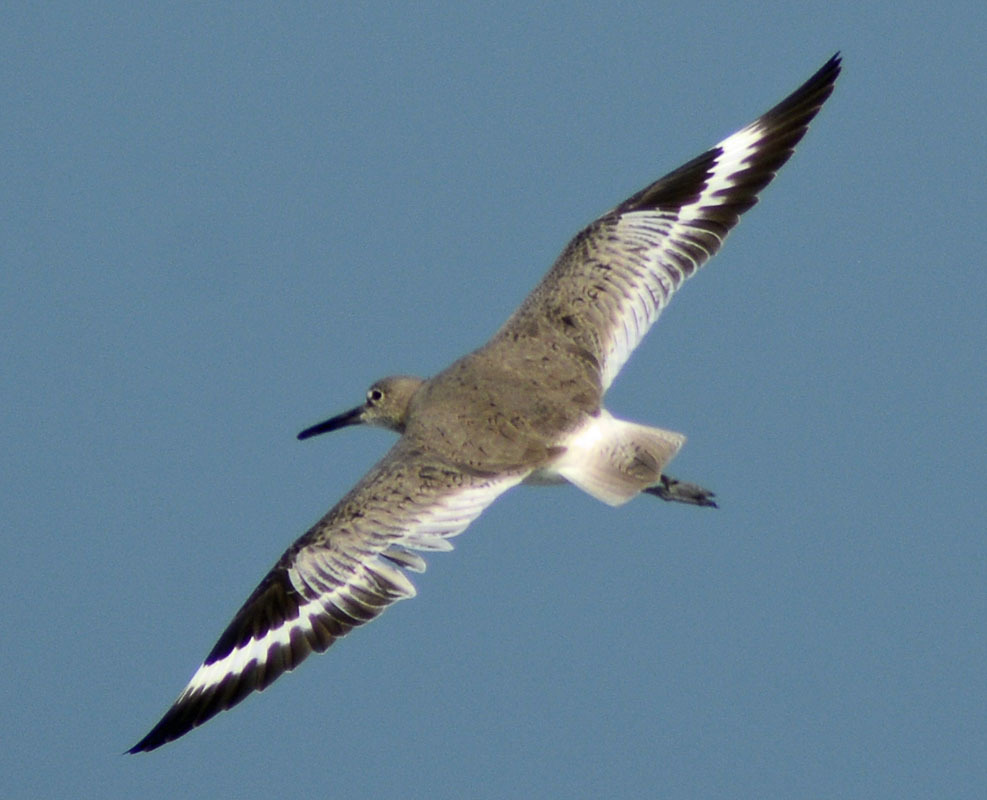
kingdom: Animalia
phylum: Chordata
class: Aves
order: Charadriiformes
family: Scolopacidae
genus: Tringa
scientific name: Tringa semipalmata
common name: Willet
